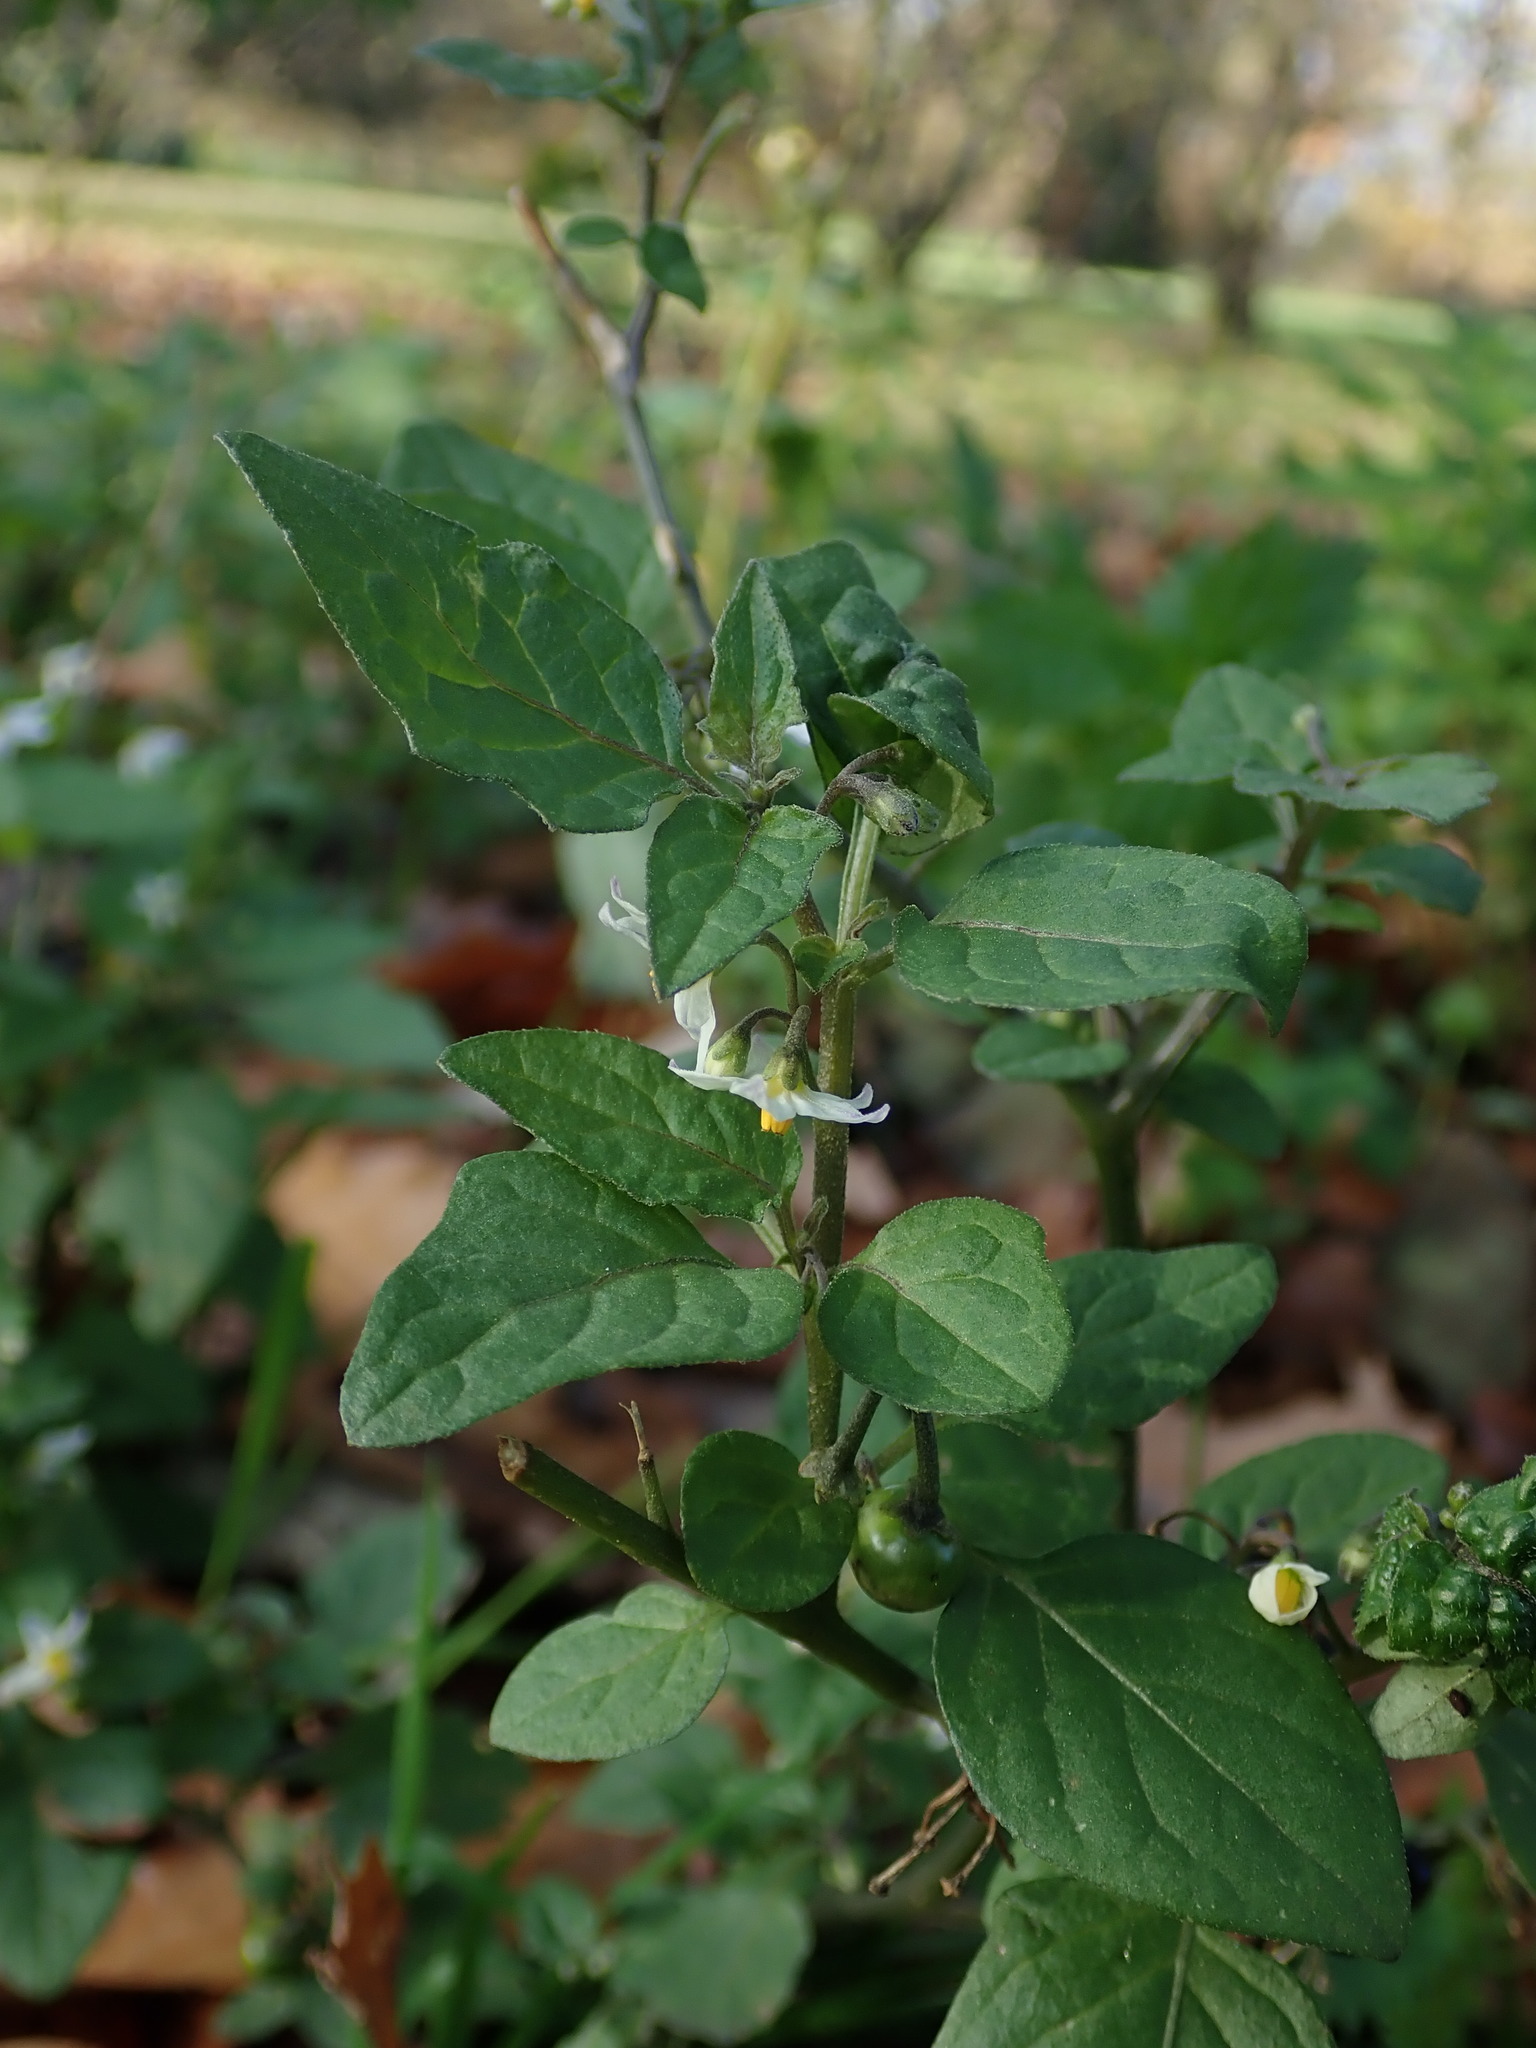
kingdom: Plantae
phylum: Tracheophyta
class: Magnoliopsida
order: Solanales
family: Solanaceae
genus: Solanum
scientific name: Solanum nigrum
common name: Black nightshade
